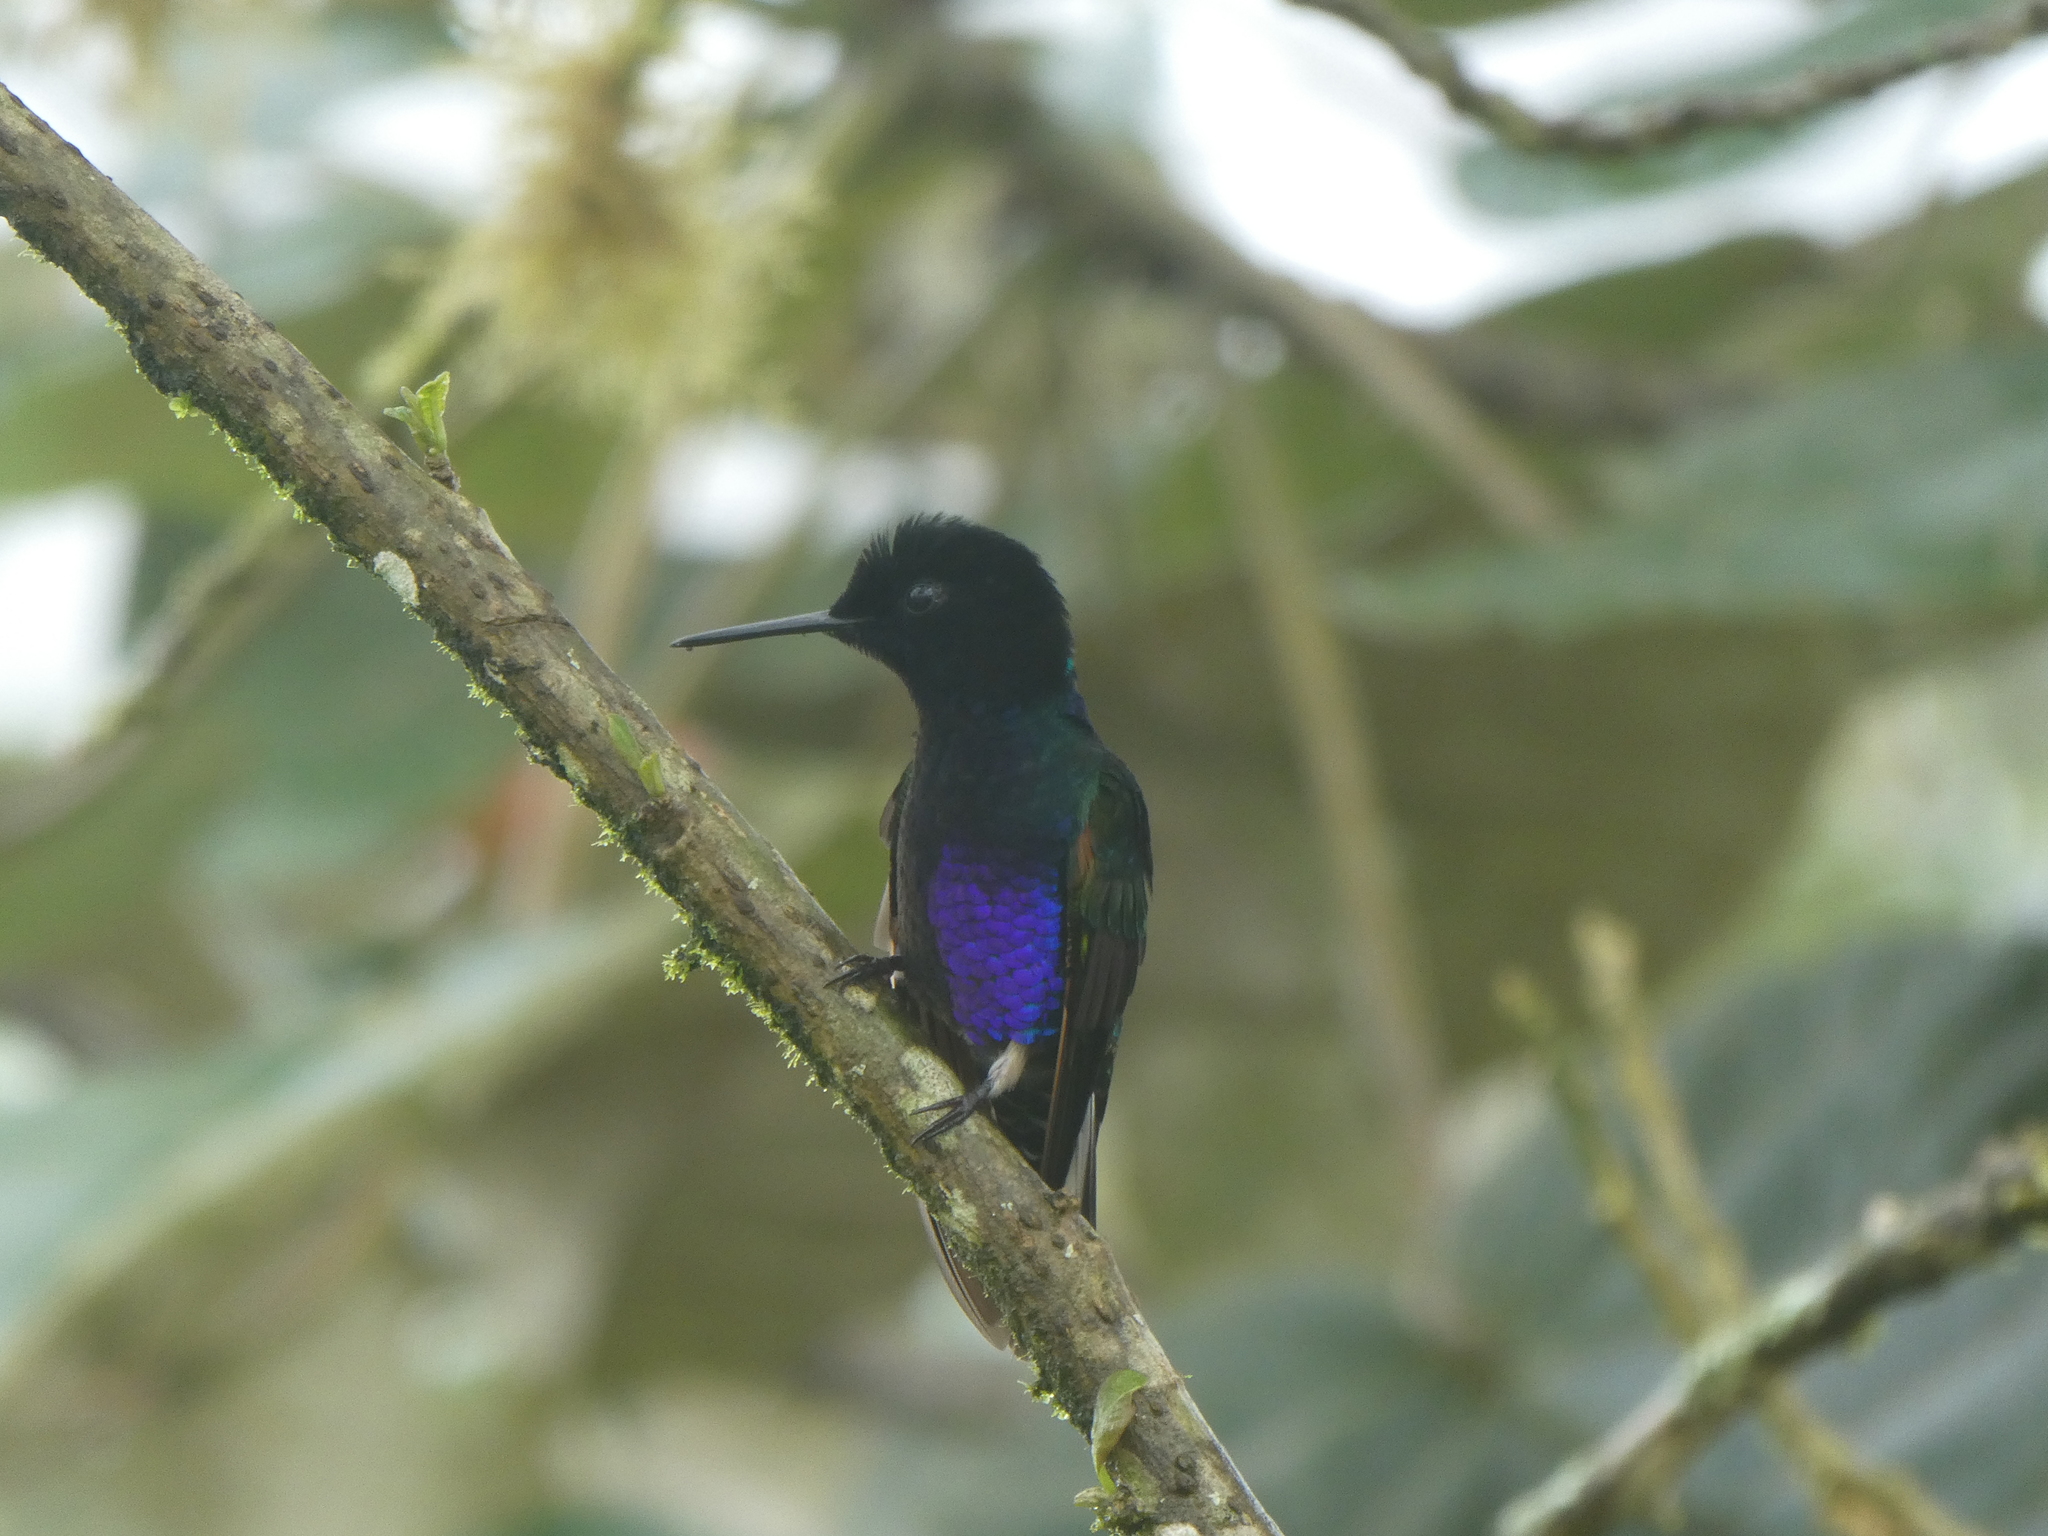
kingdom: Animalia
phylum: Chordata
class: Aves
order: Apodiformes
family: Trochilidae
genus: Boissonneaua
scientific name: Boissonneaua jardini
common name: Velvet-purple coronet
